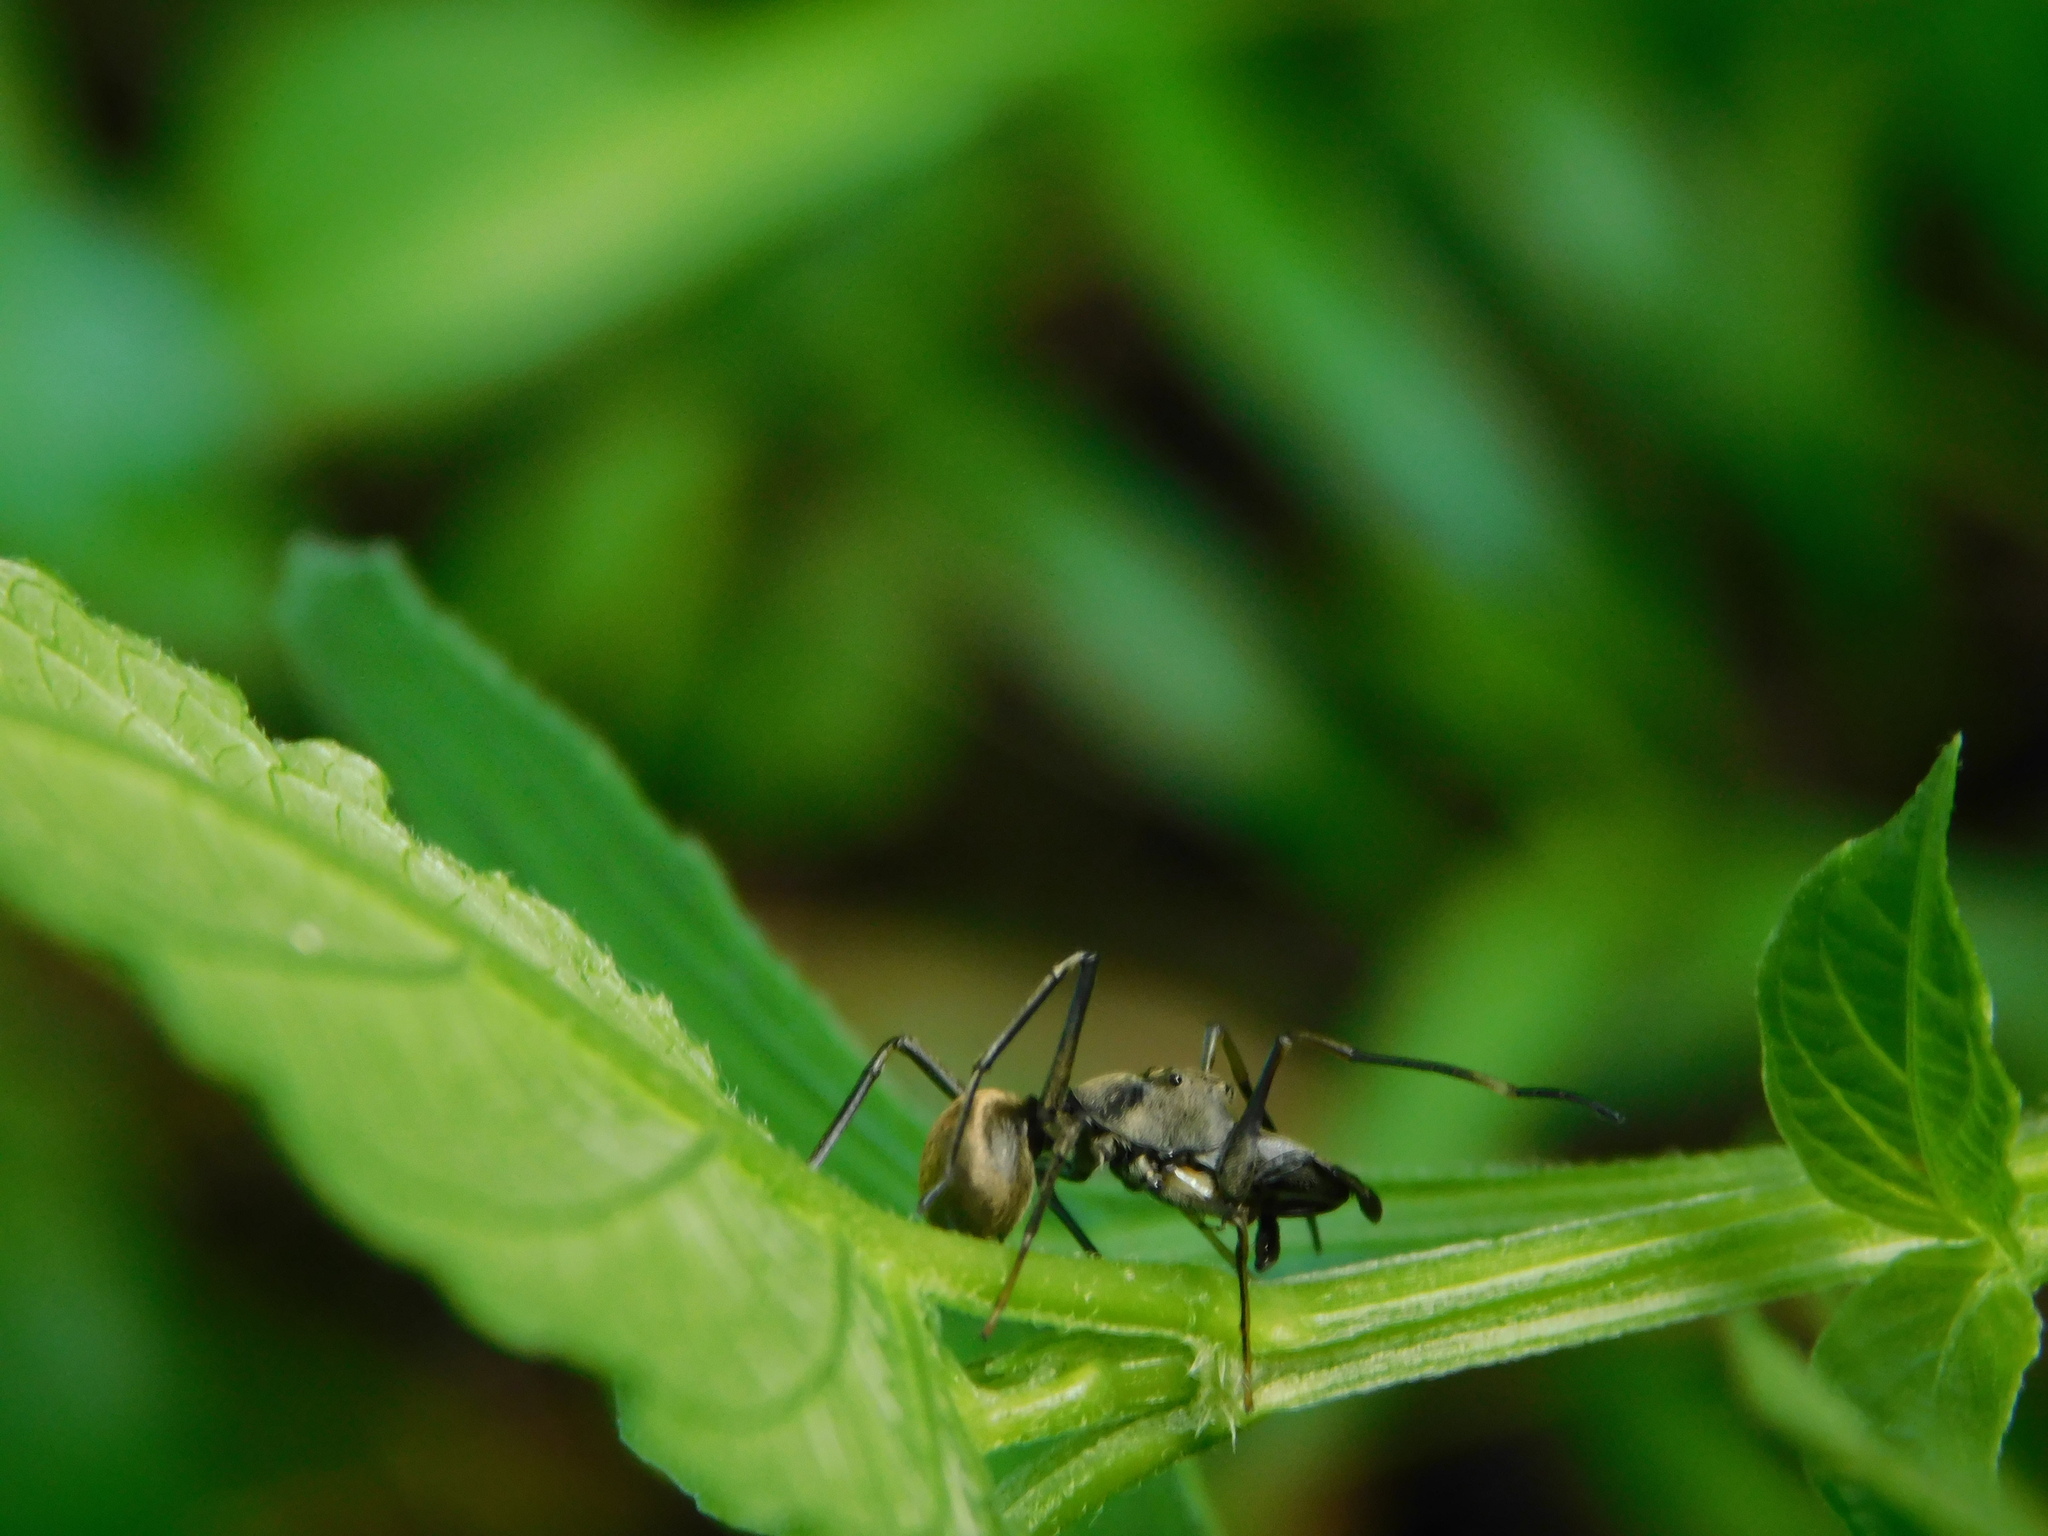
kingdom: Animalia
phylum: Arthropoda
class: Arachnida
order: Araneae
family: Salticidae
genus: Toxeus
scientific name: Toxeus maxillosus
